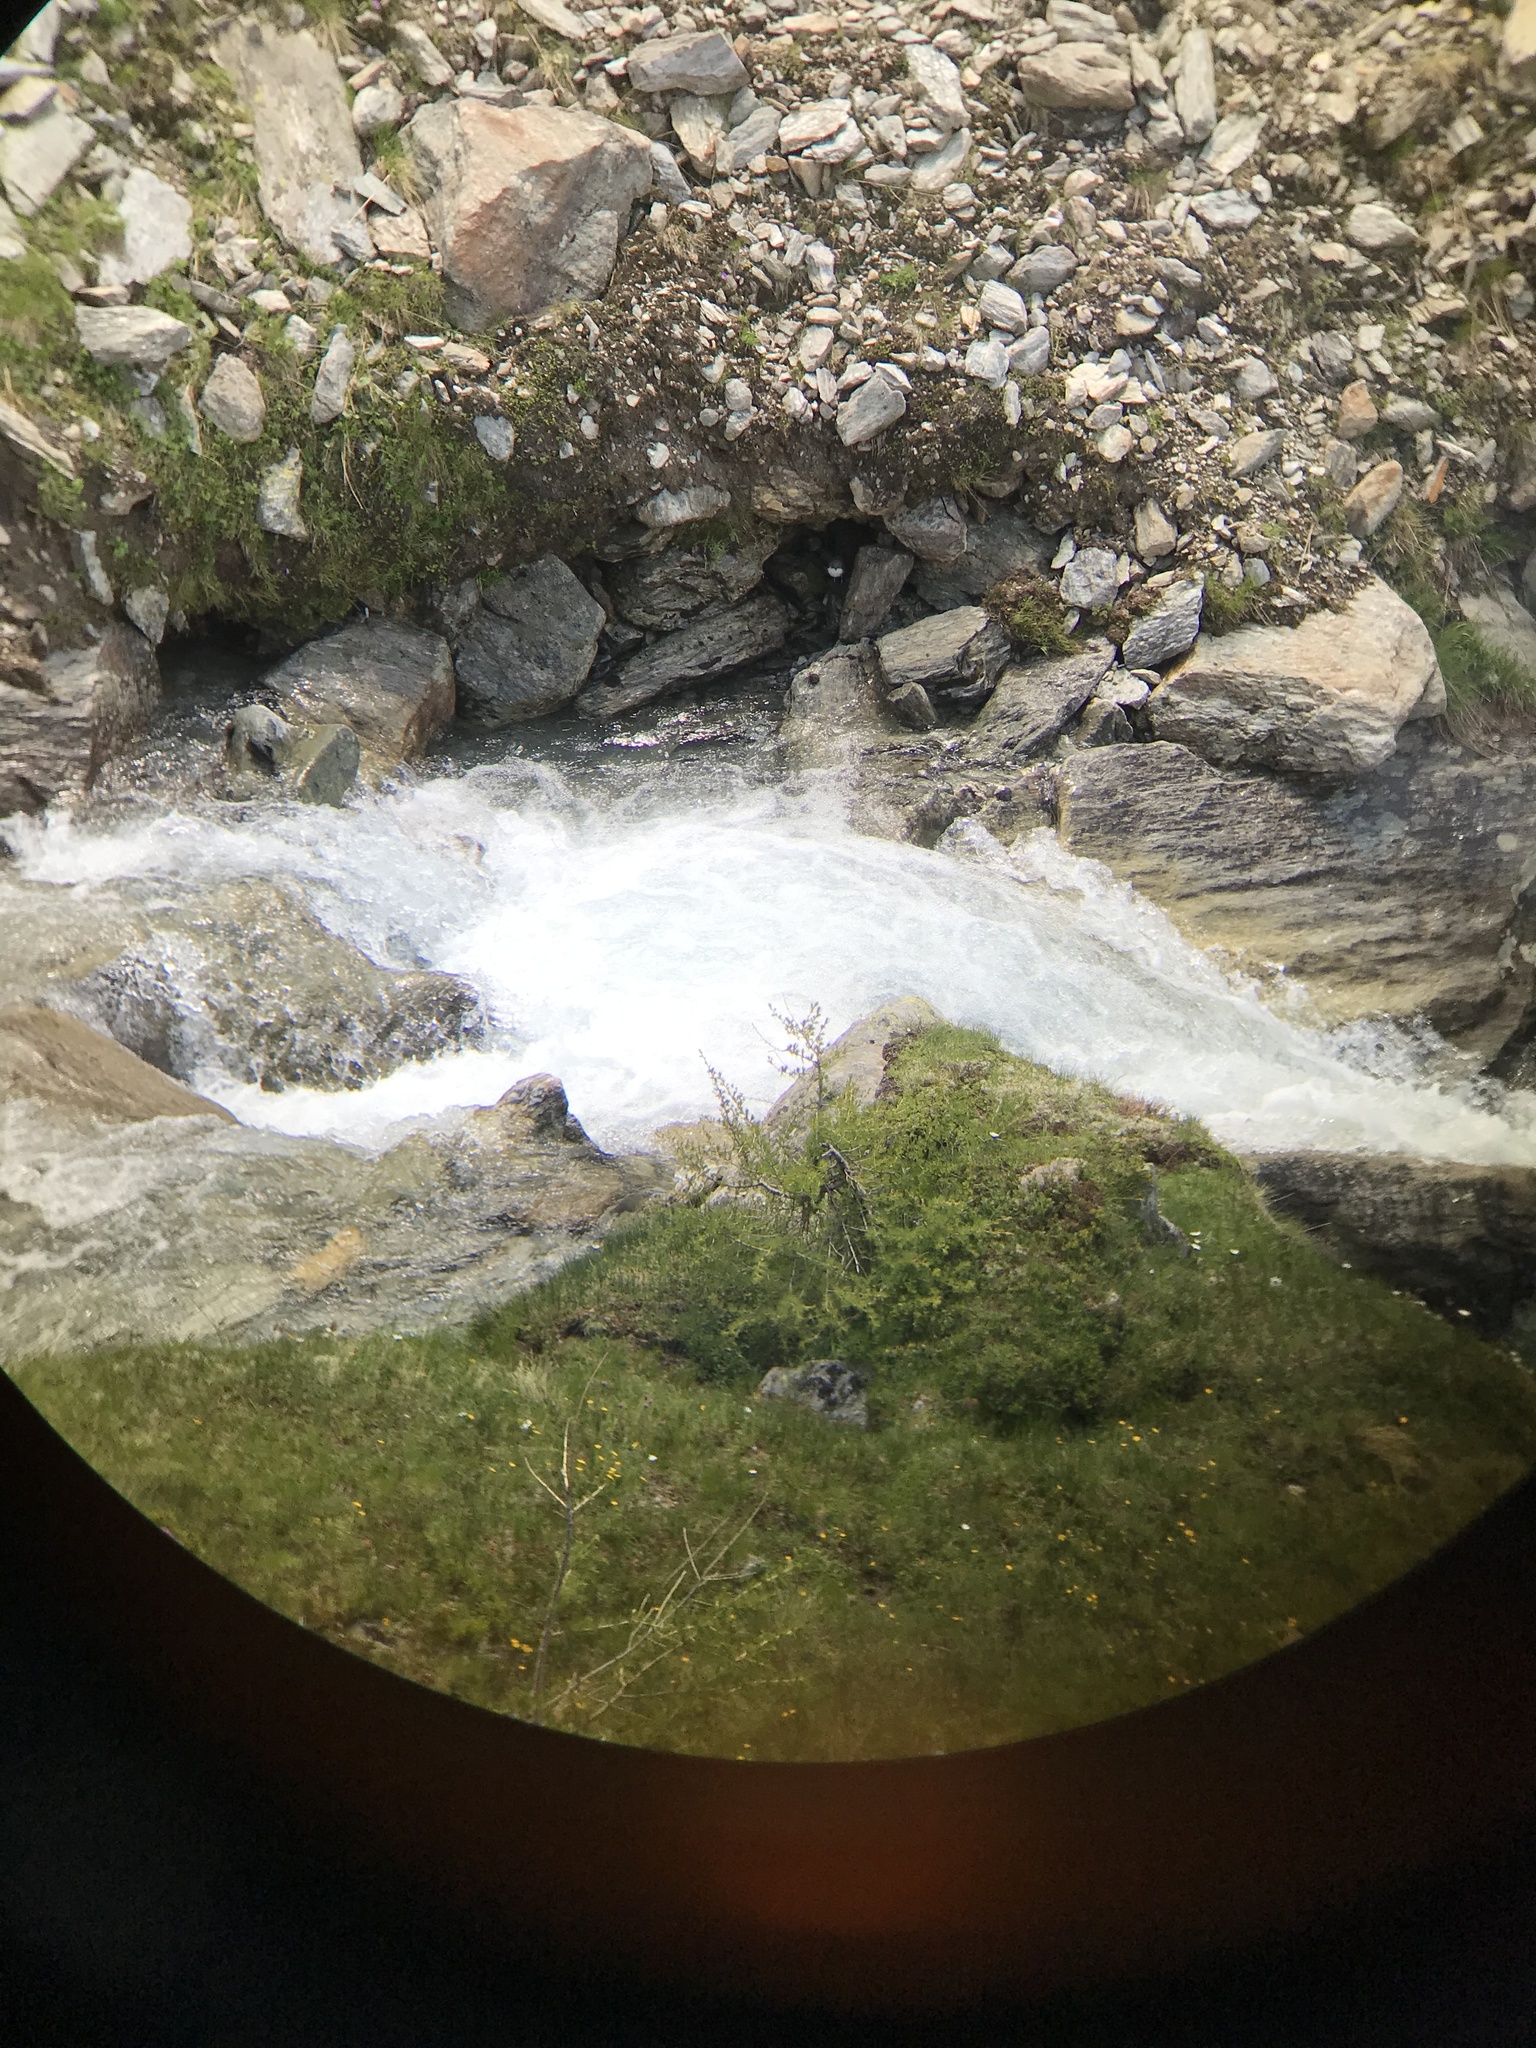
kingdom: Animalia
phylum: Chordata
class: Aves
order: Passeriformes
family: Cinclidae
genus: Cinclus
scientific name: Cinclus cinclus
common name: White-throated dipper
